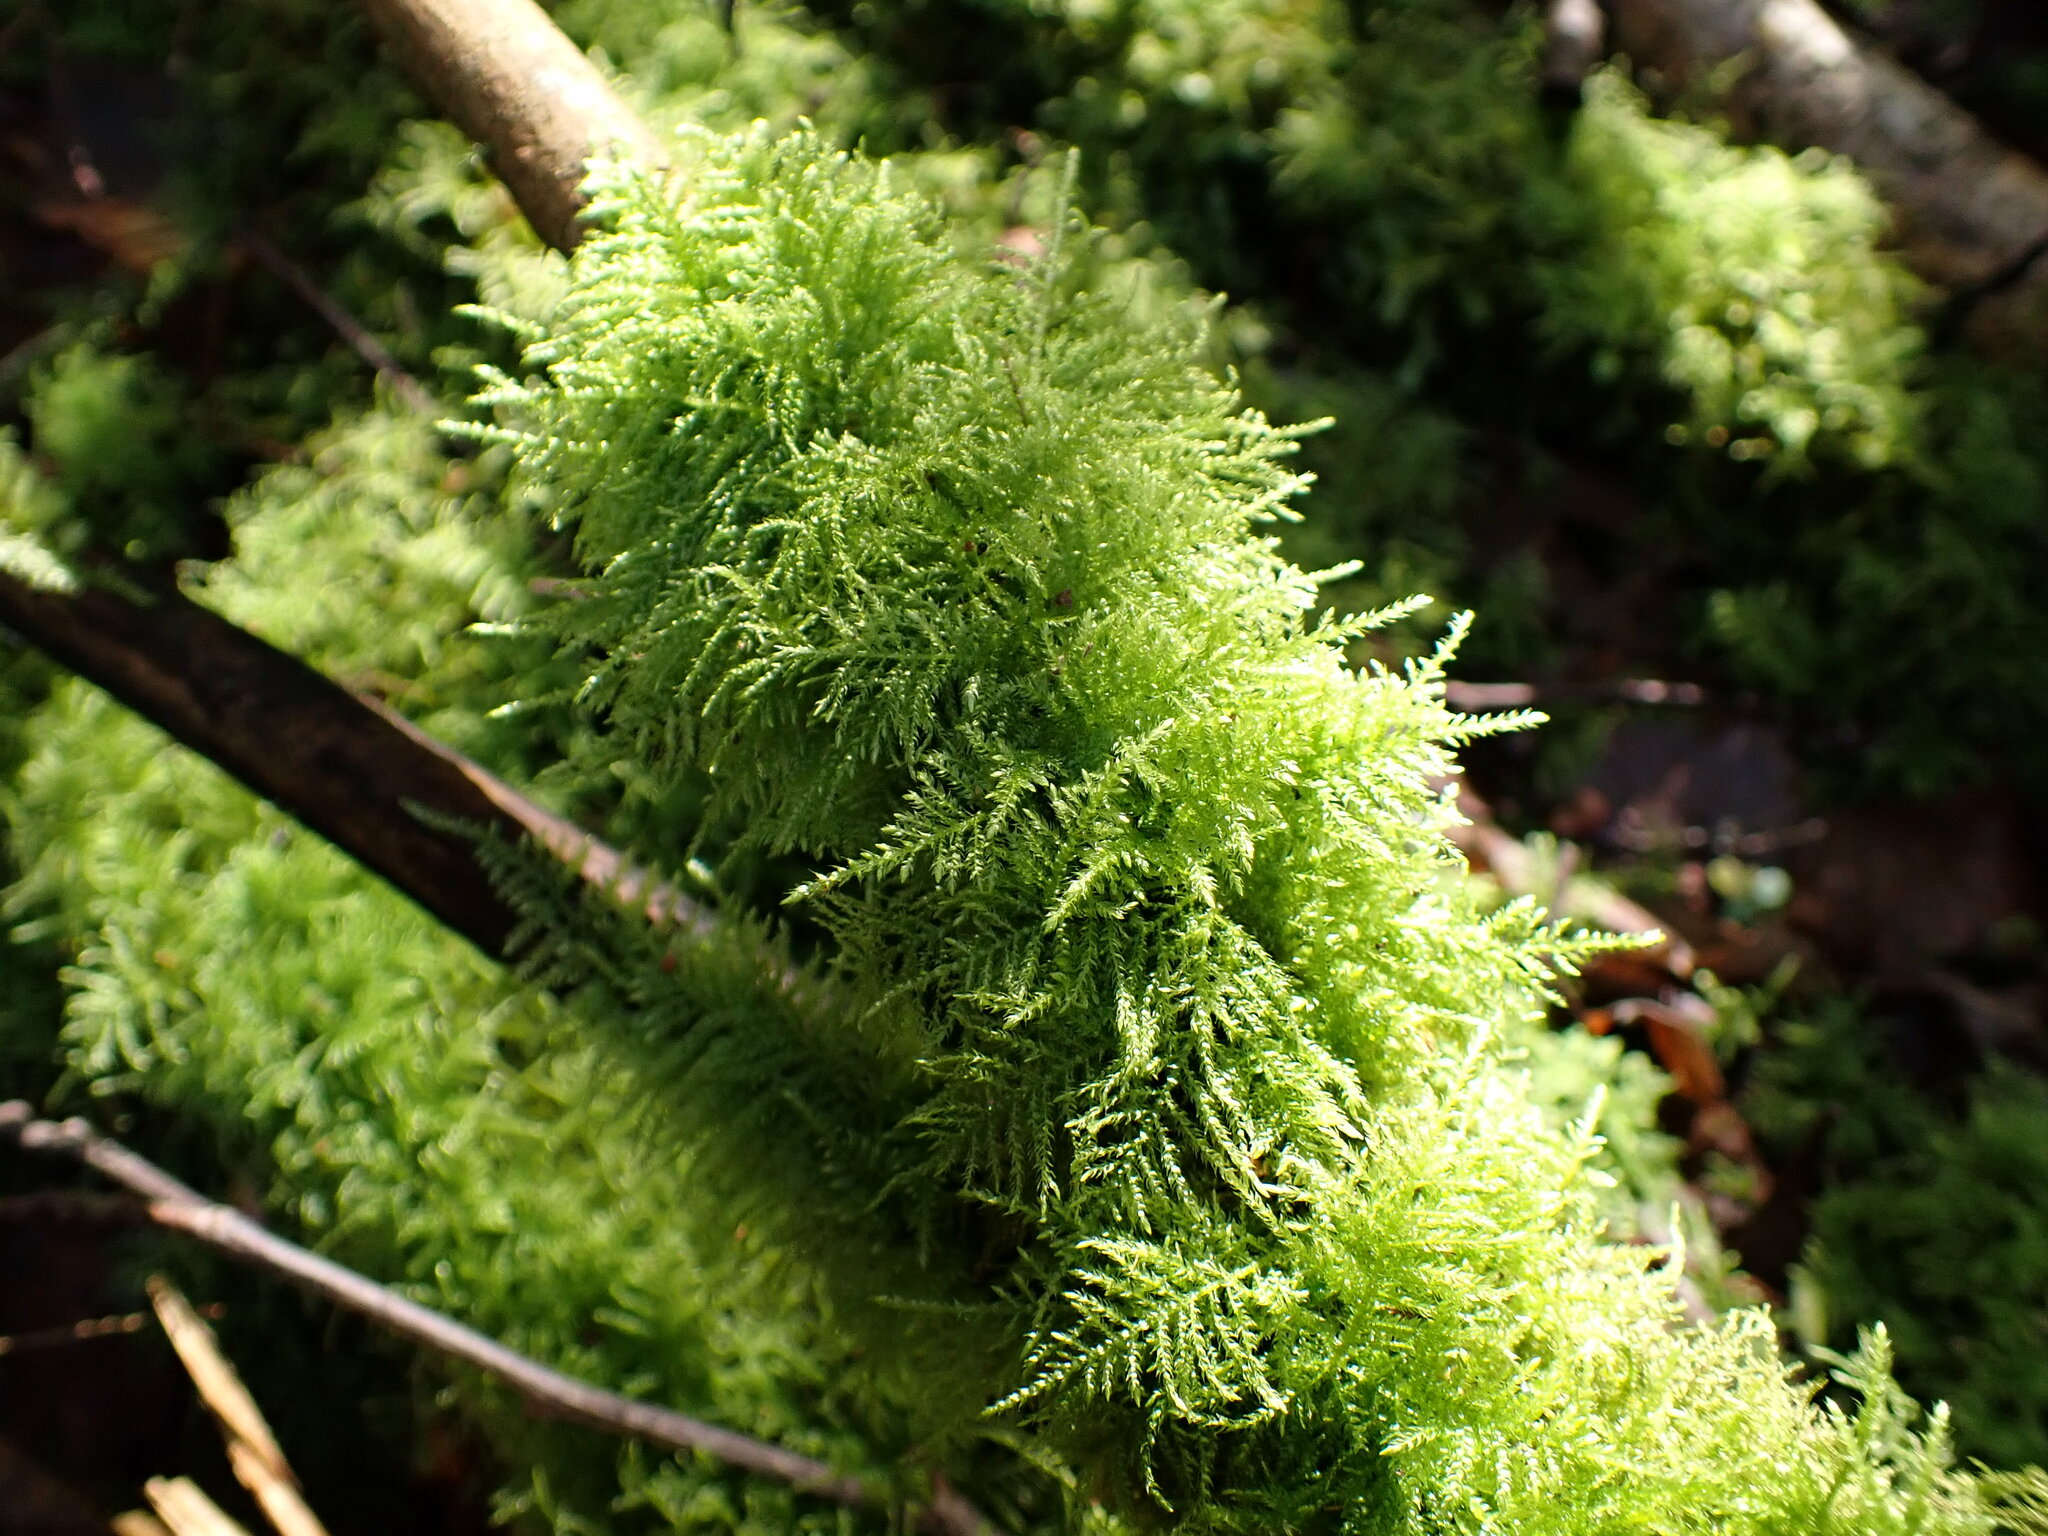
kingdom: Plantae
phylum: Bryophyta
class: Bryopsida
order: Hypnales
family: Brachytheciaceae
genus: Kindbergia
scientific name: Kindbergia praelonga
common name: Slender beaked moss
